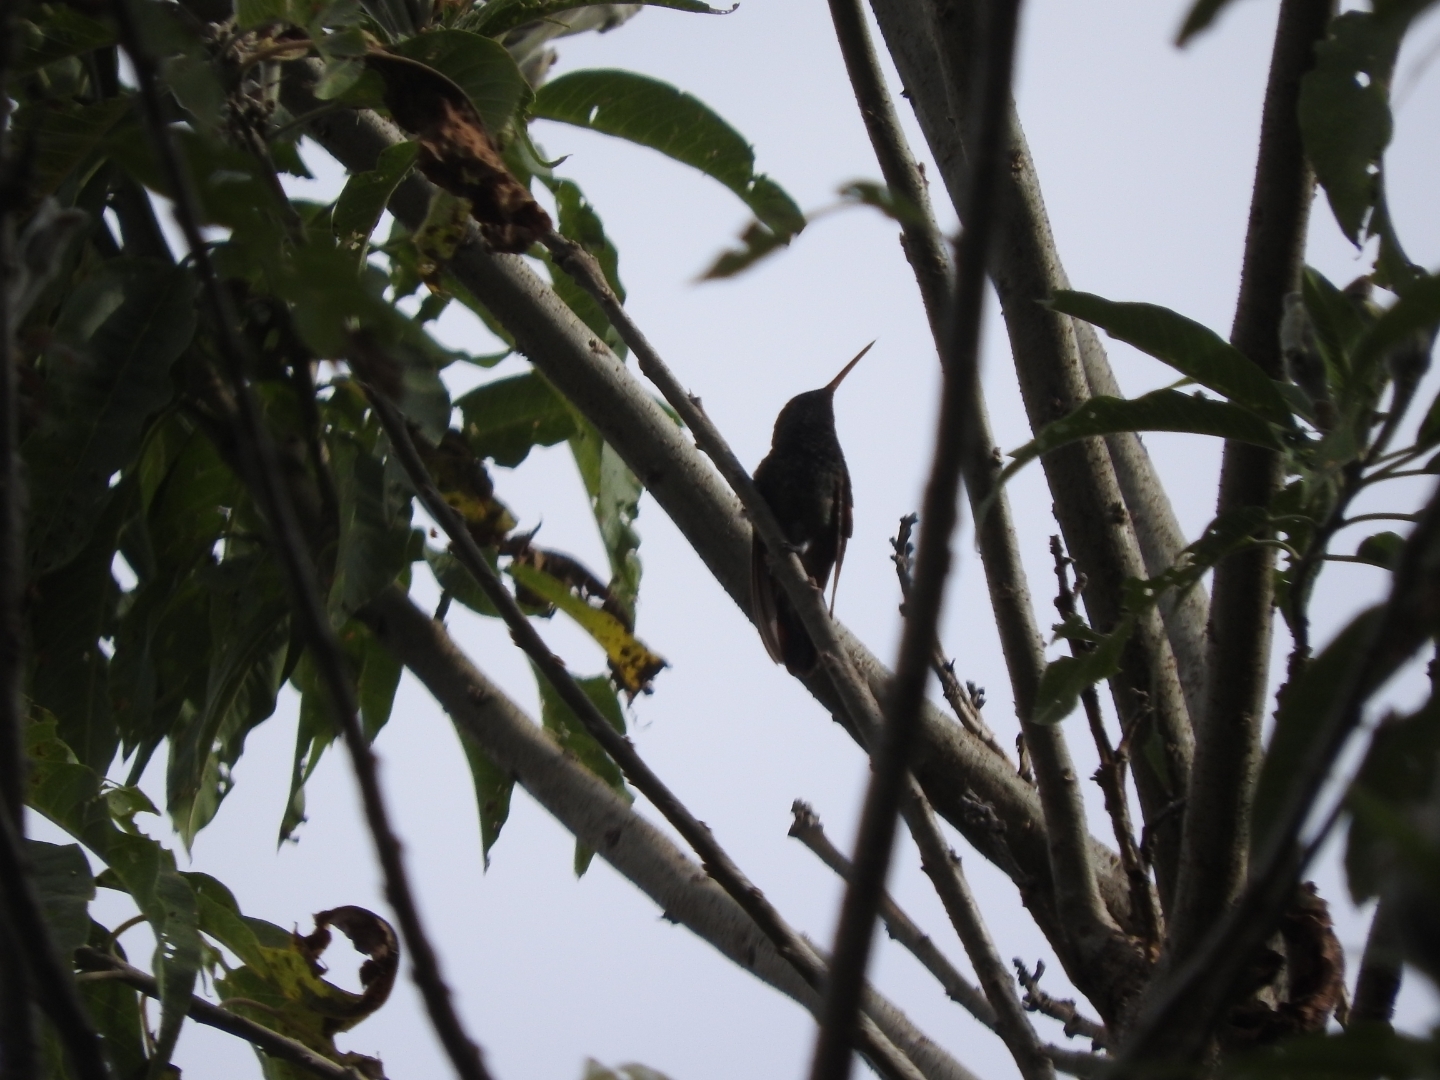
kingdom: Animalia
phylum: Chordata
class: Aves
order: Apodiformes
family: Trochilidae
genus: Saucerottia
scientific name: Saucerottia beryllina
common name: Berylline hummingbird
